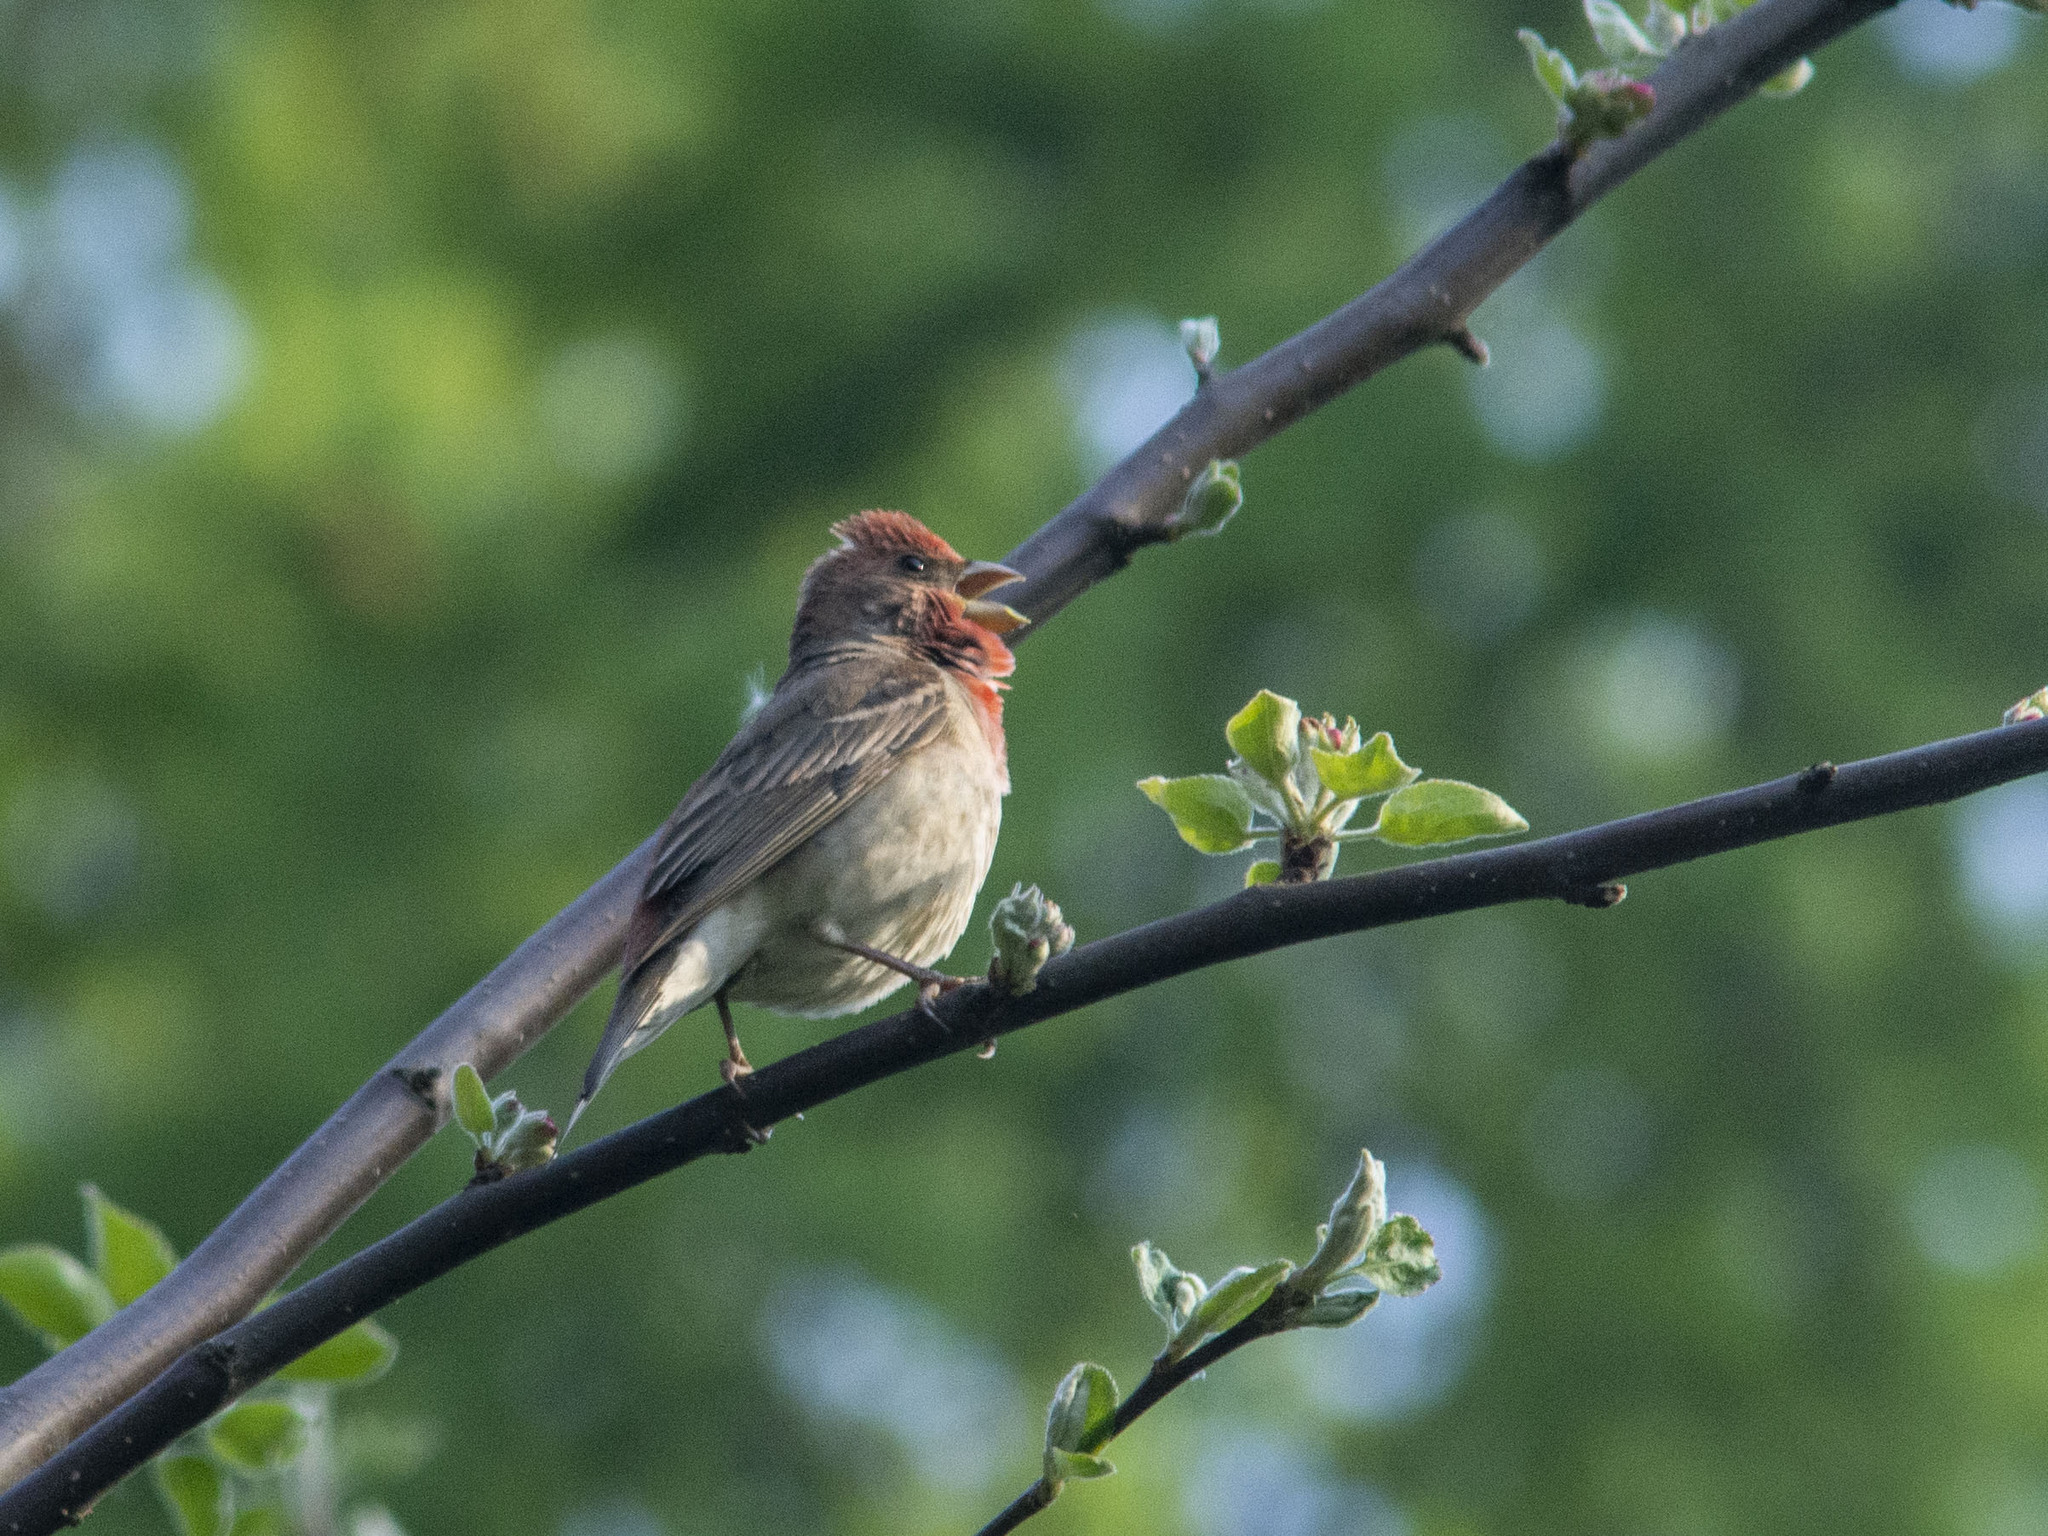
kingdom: Animalia
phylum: Chordata
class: Aves
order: Passeriformes
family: Fringillidae
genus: Carpodacus
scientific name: Carpodacus erythrinus
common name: Common rosefinch
